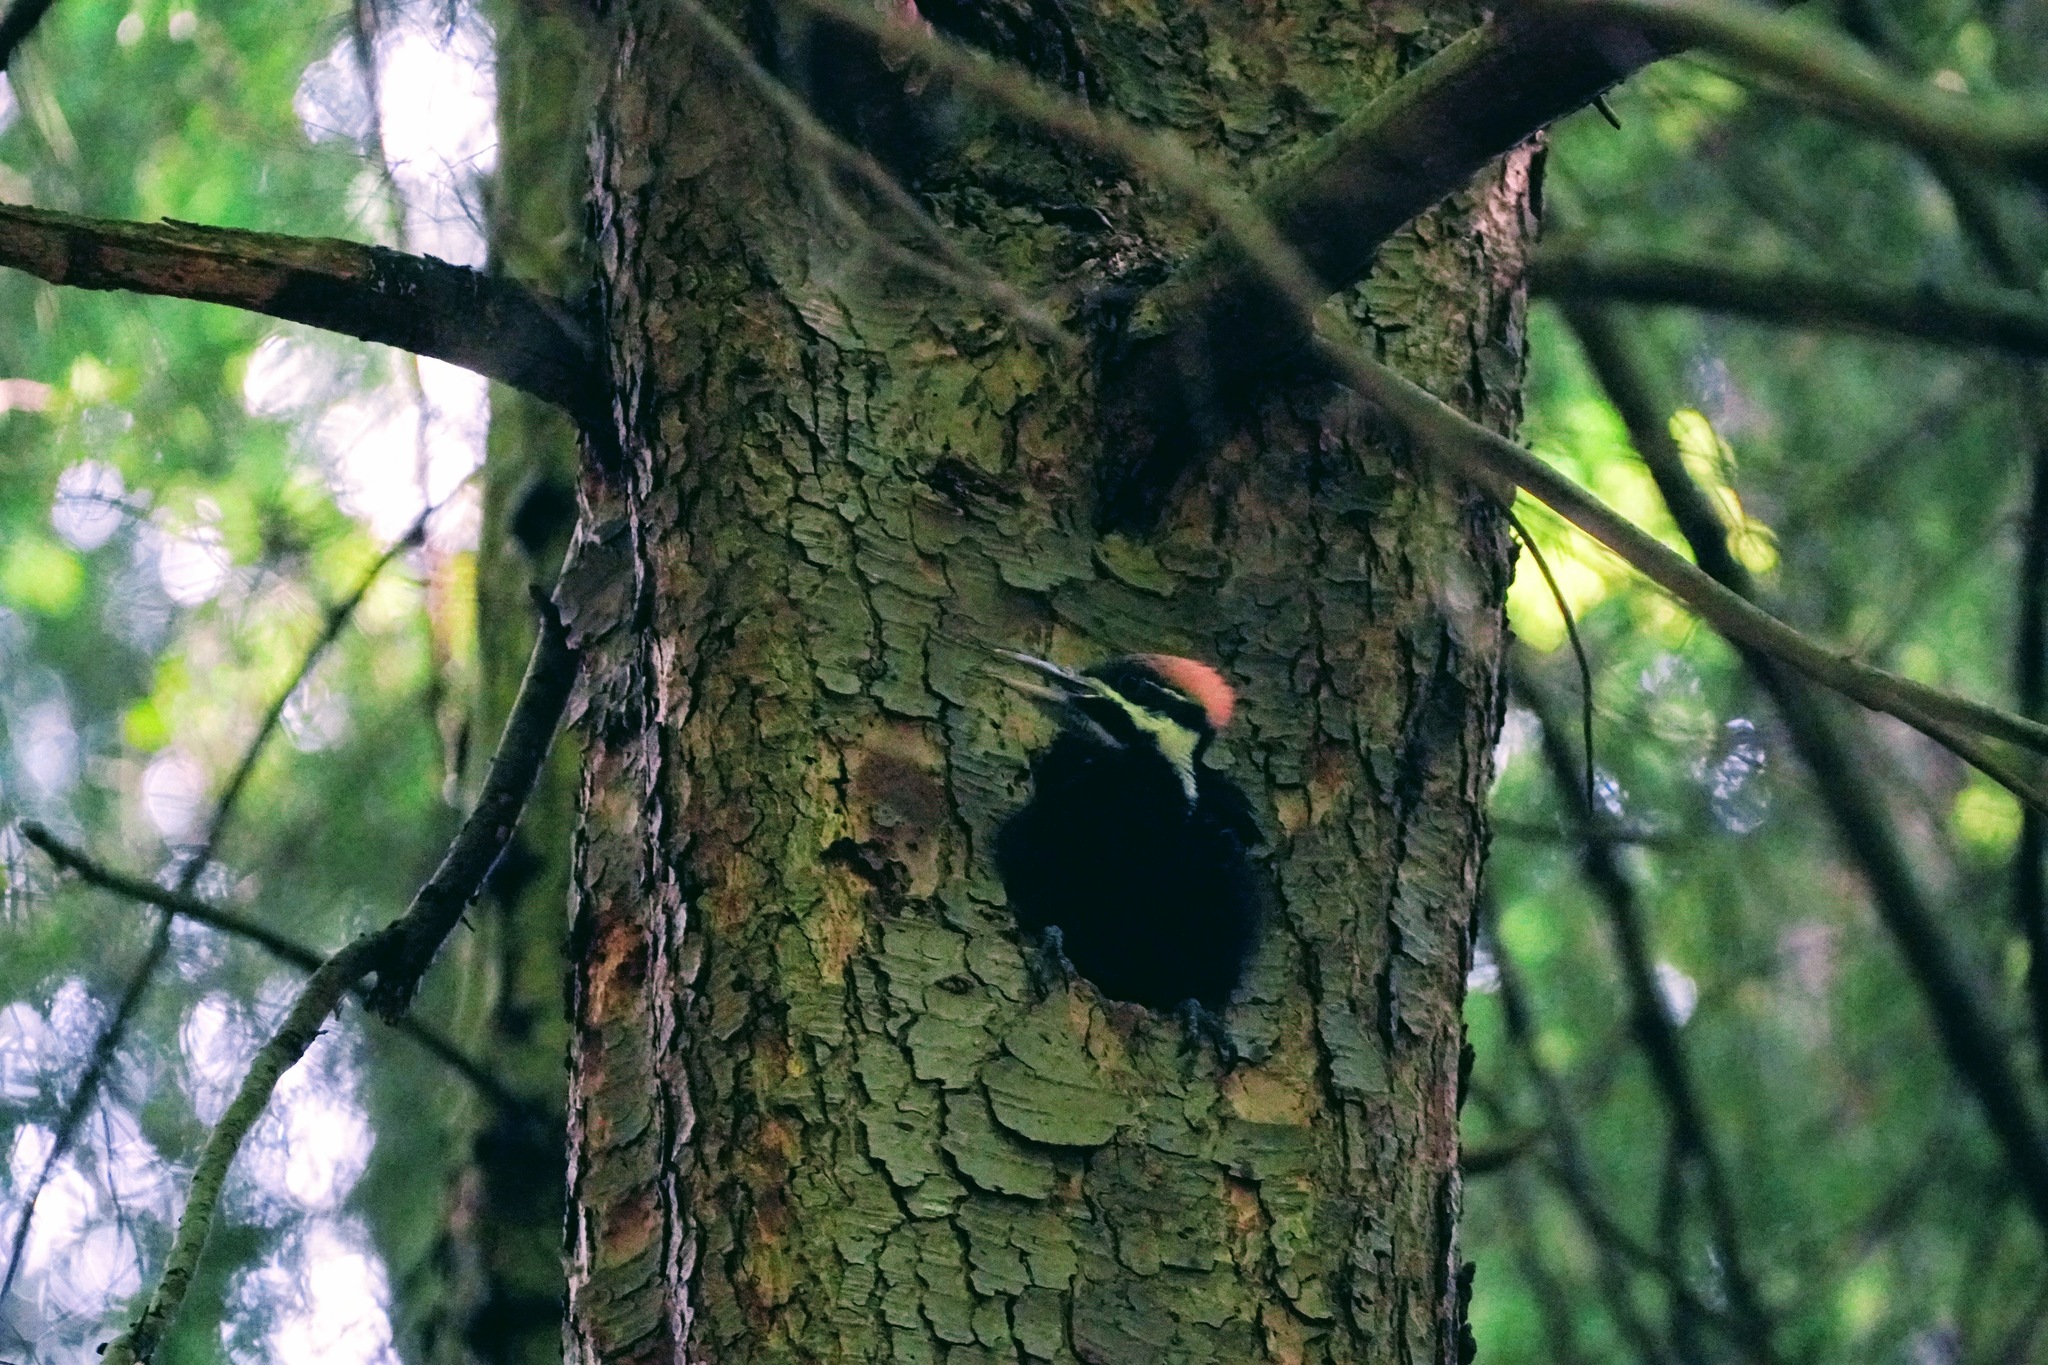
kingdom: Animalia
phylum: Chordata
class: Aves
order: Piciformes
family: Picidae
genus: Dryocopus
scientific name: Dryocopus pileatus
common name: Pileated woodpecker
